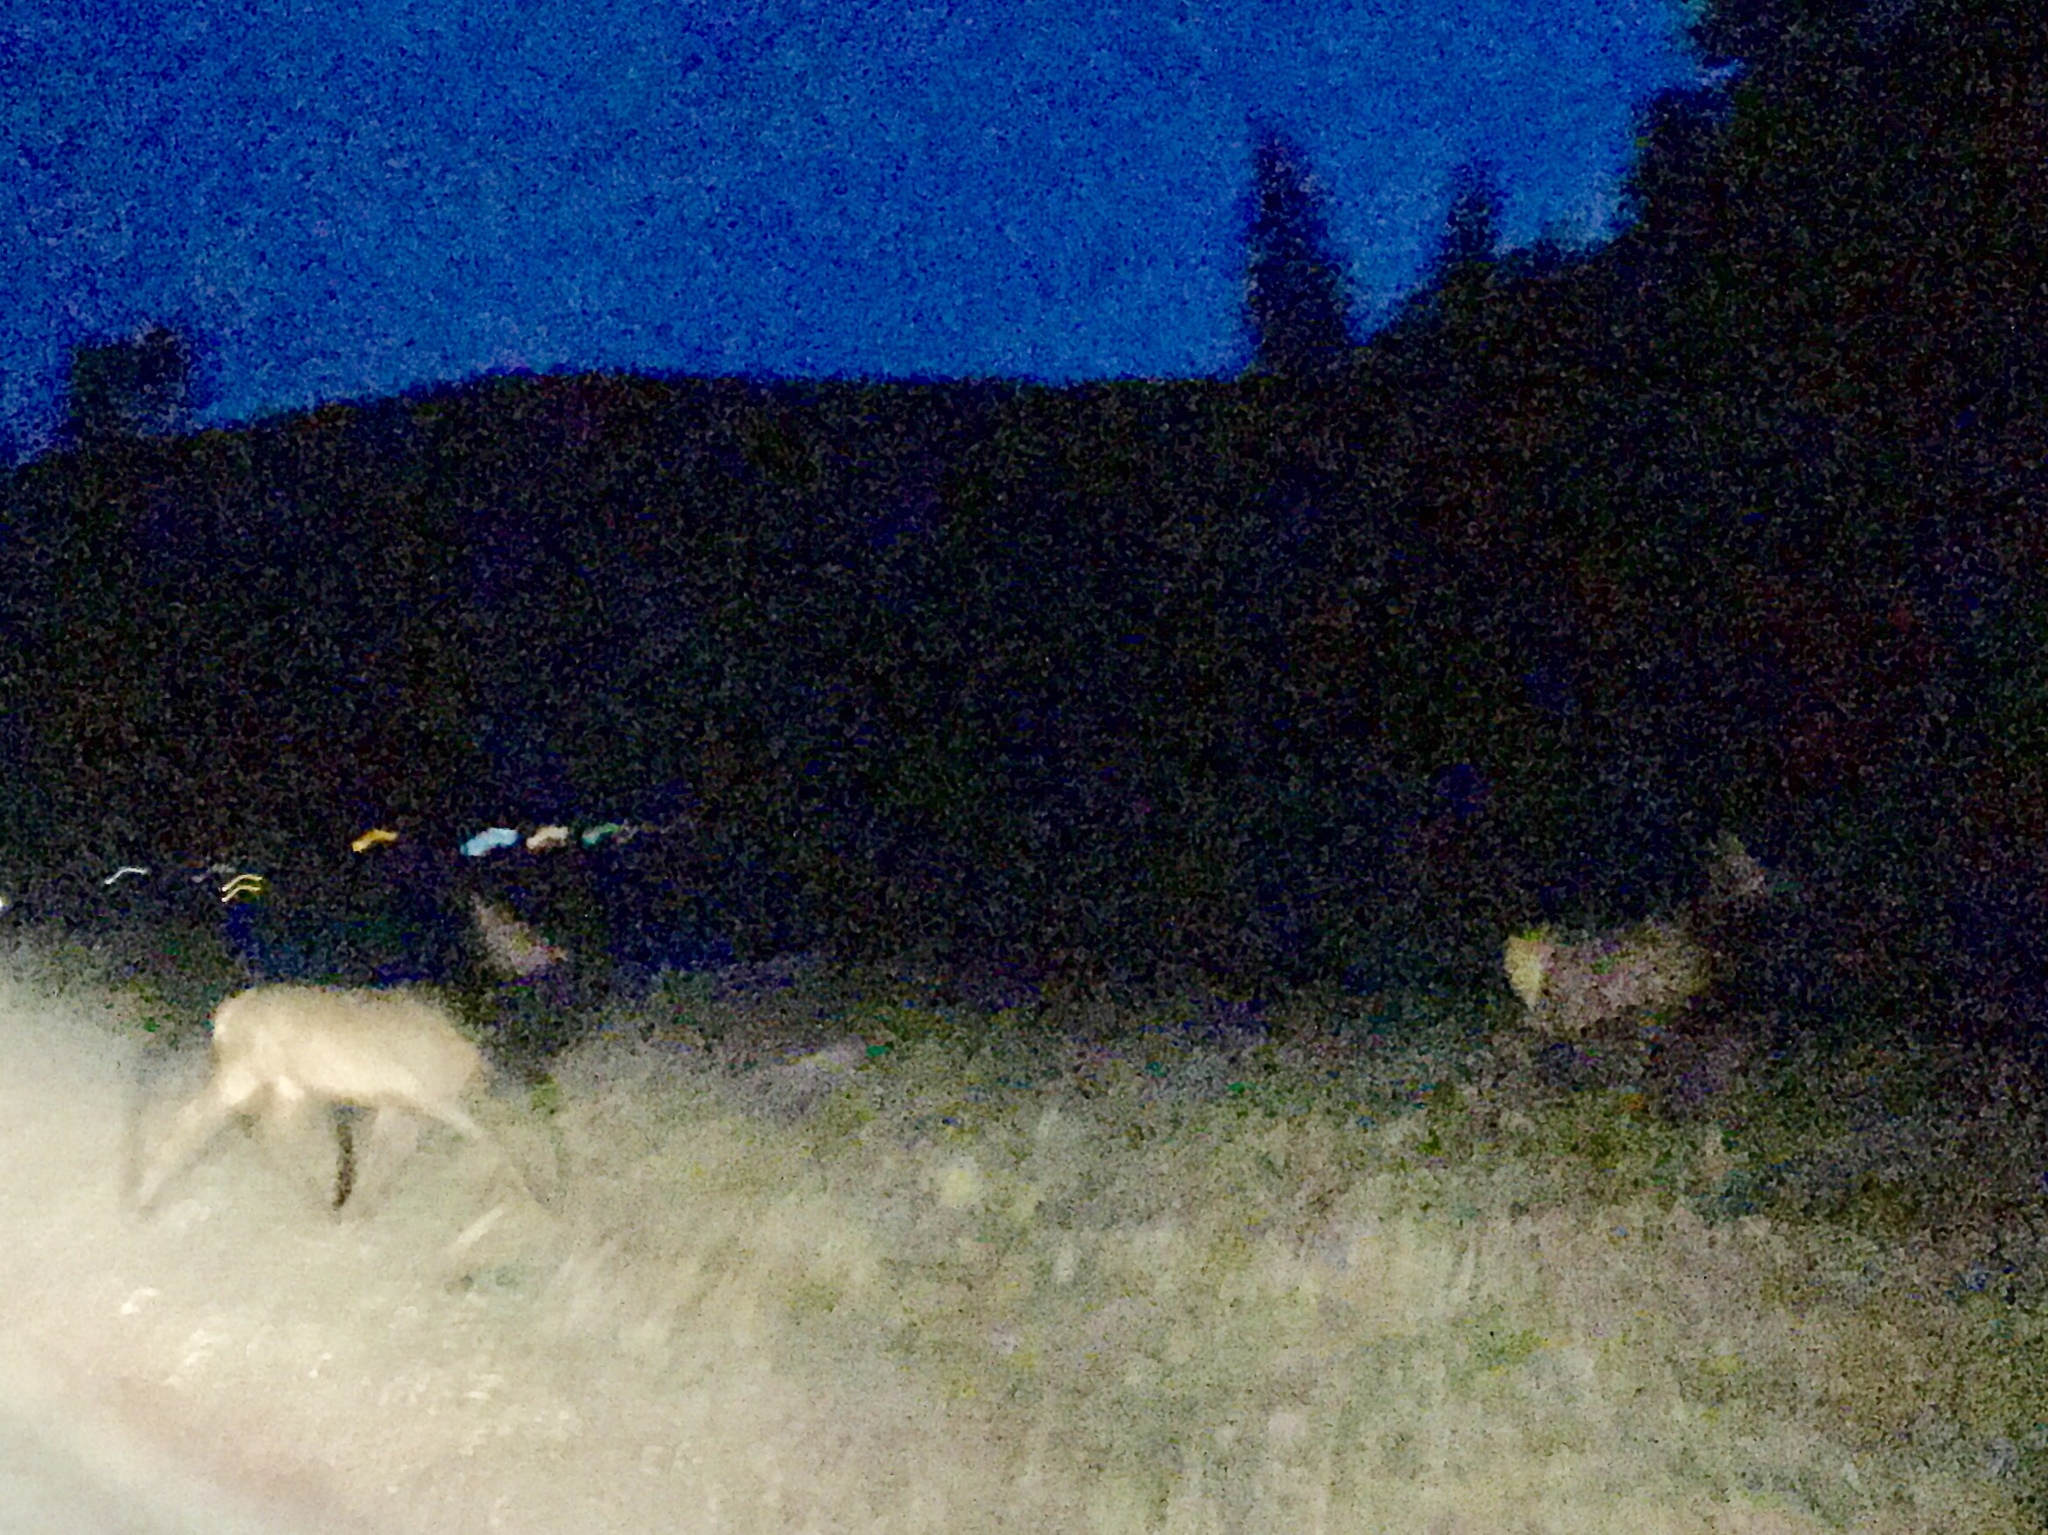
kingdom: Animalia
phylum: Chordata
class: Mammalia
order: Artiodactyla
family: Cervidae
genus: Cervus
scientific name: Cervus elaphus
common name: Red deer
